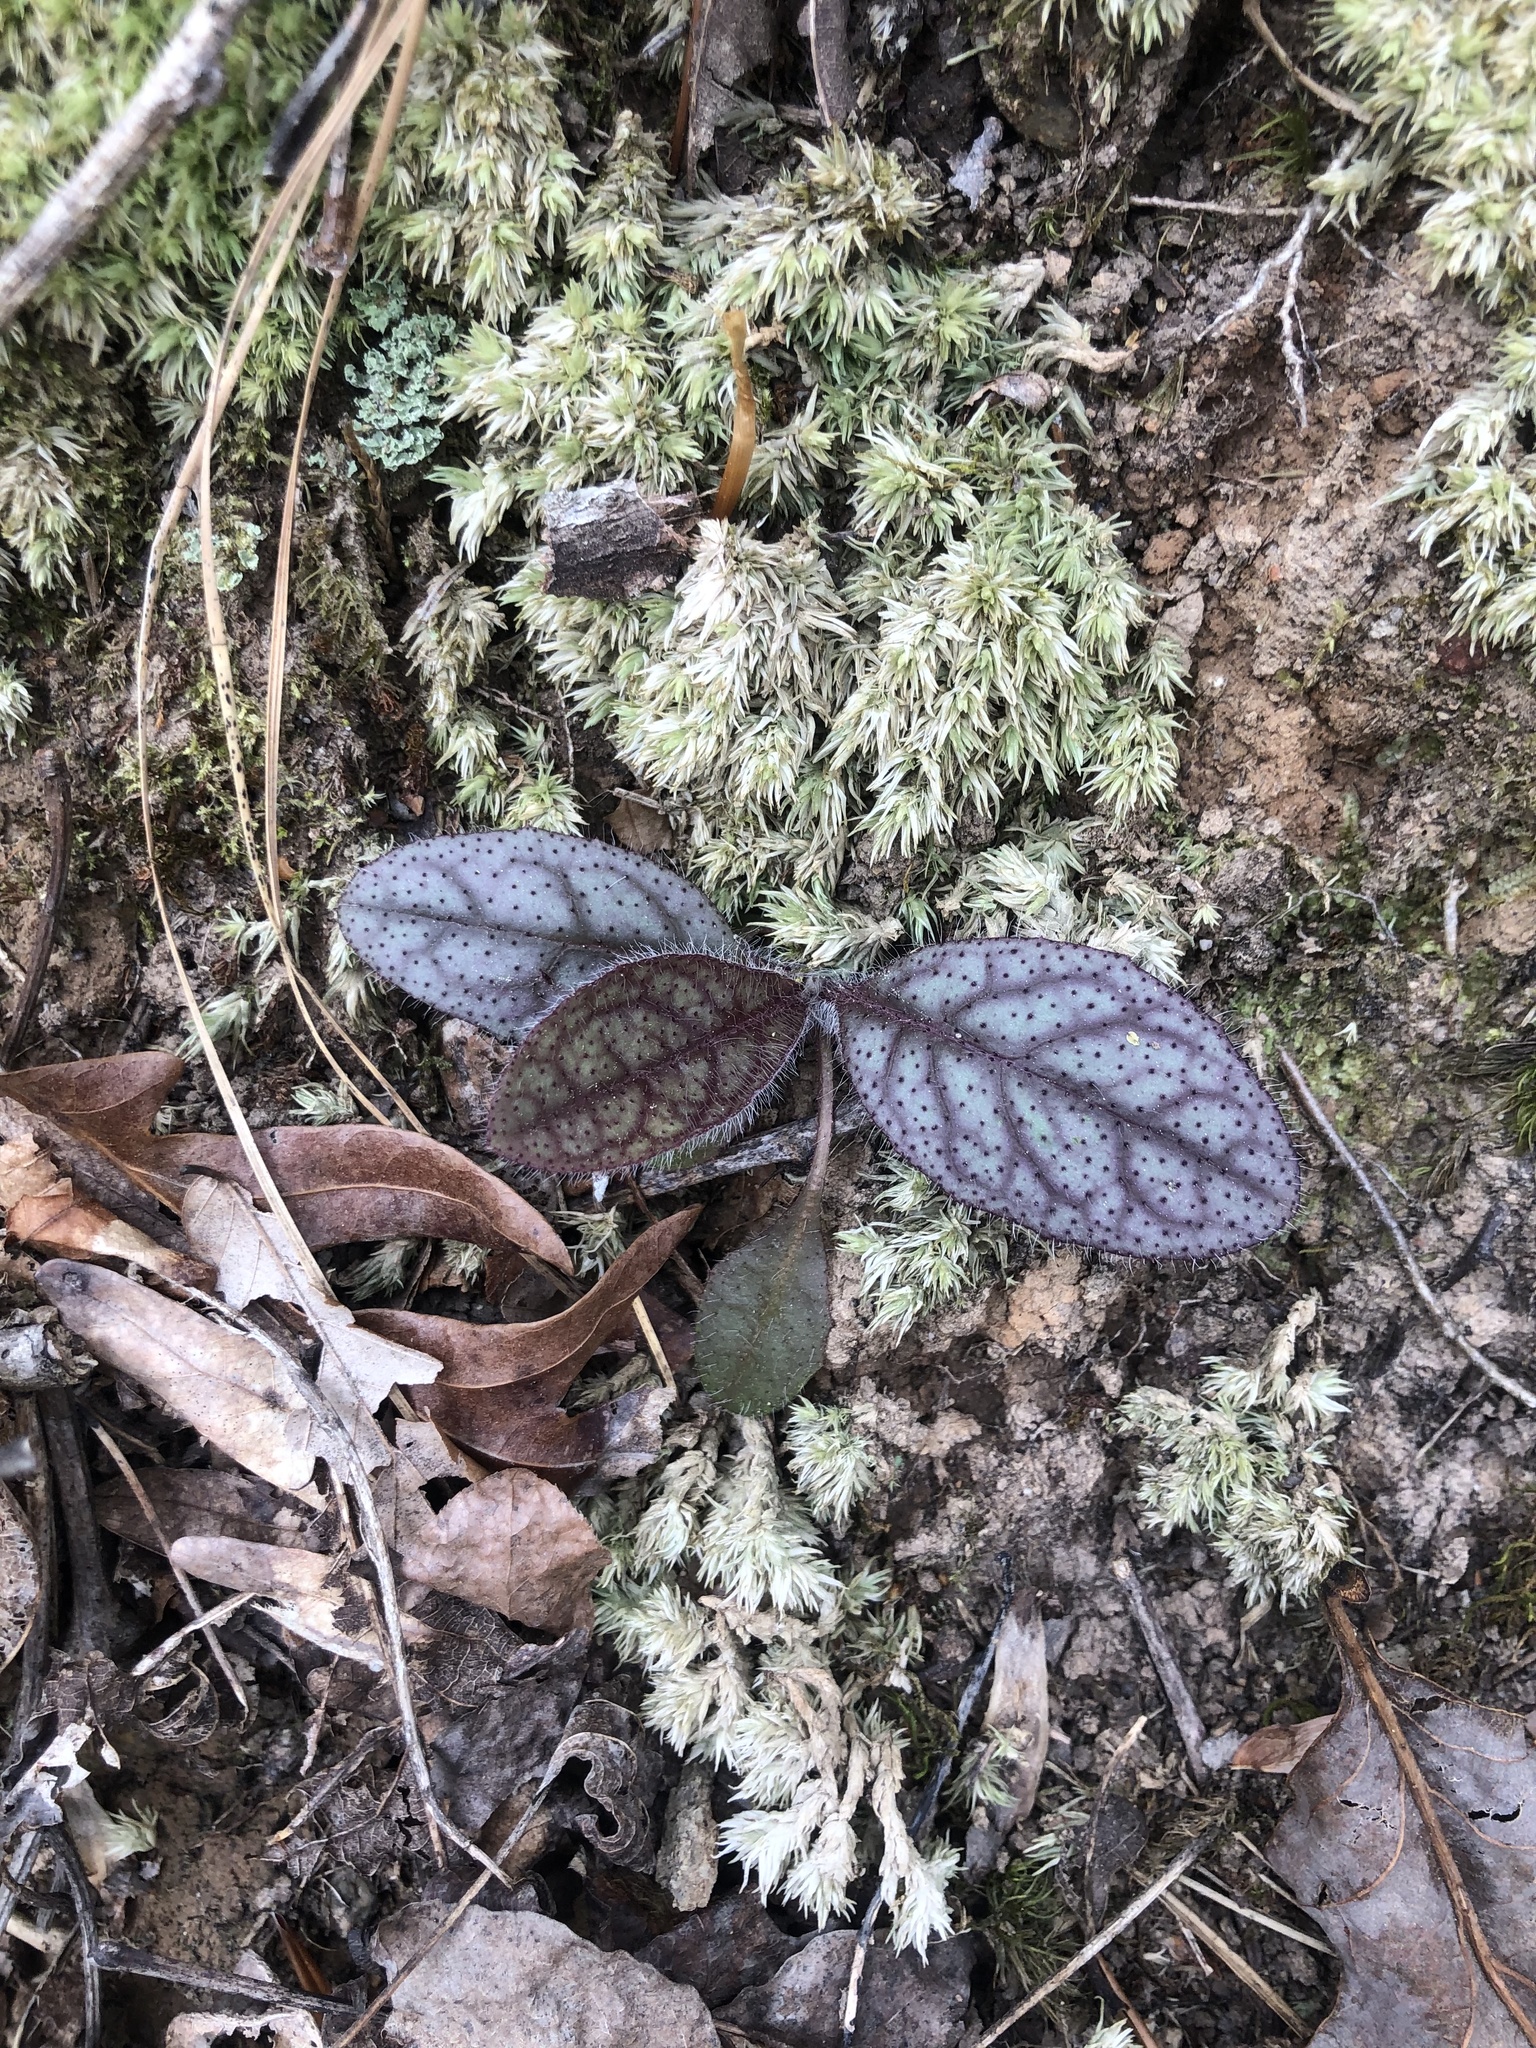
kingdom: Plantae
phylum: Tracheophyta
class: Magnoliopsida
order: Asterales
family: Asteraceae
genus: Hieracium
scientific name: Hieracium venosum
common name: Rattlesnake hawkweed
